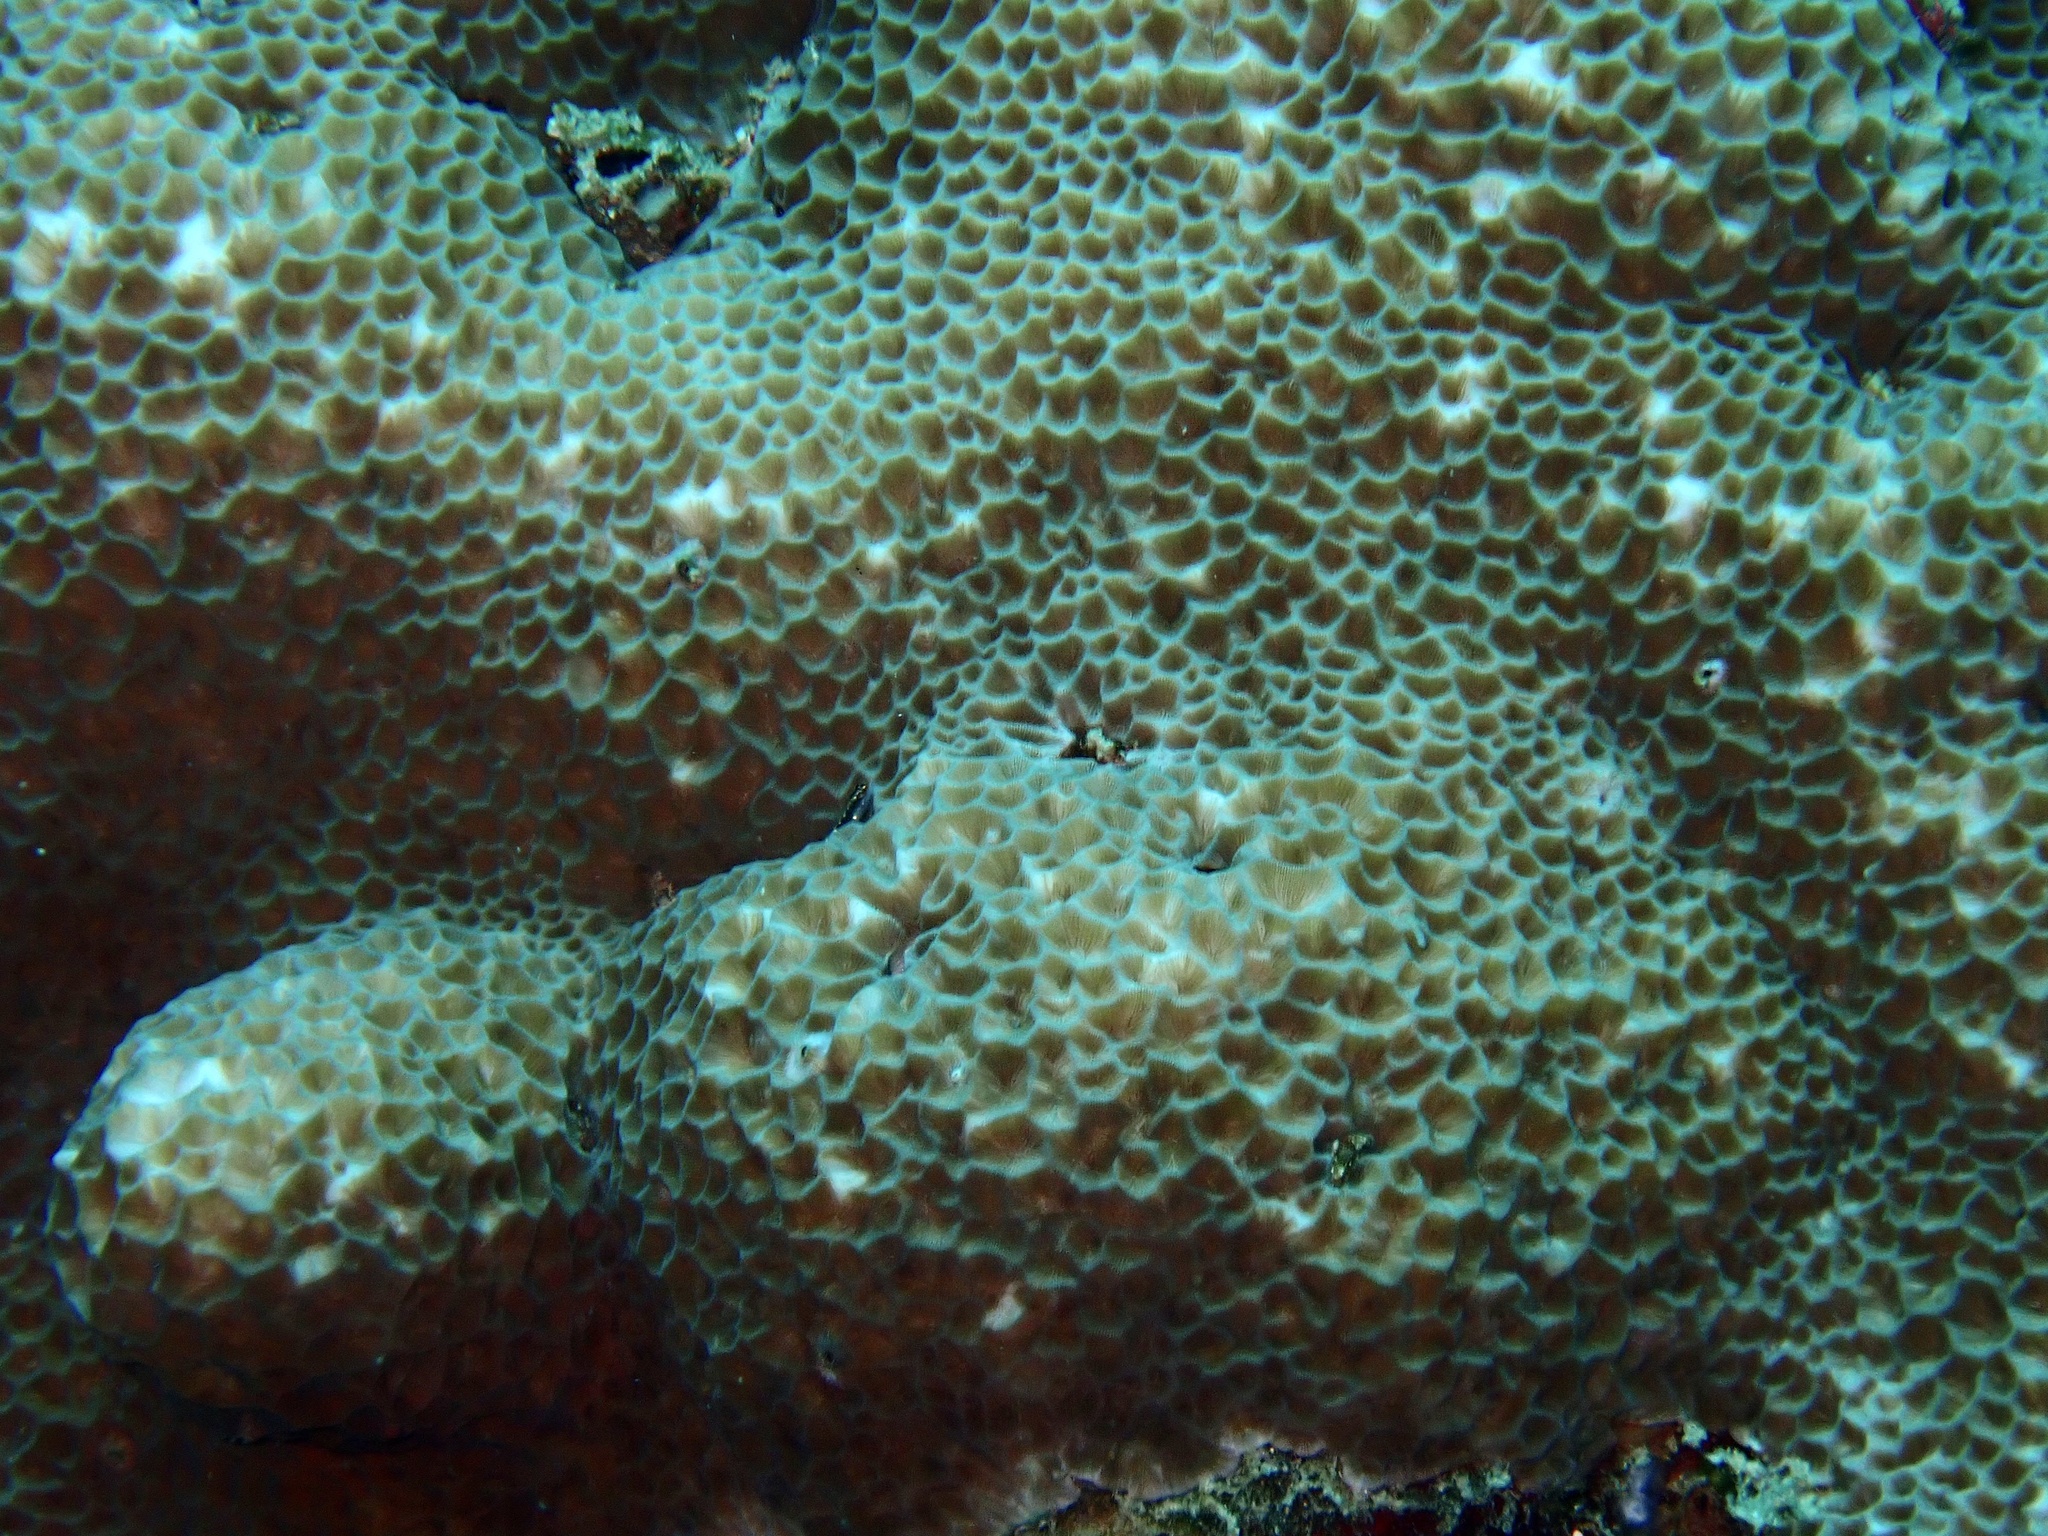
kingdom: Animalia
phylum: Cnidaria
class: Anthozoa
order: Scleractinia
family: Agariciidae
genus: Gardineroseris
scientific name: Gardineroseris planulata
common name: Gardiner's coral
